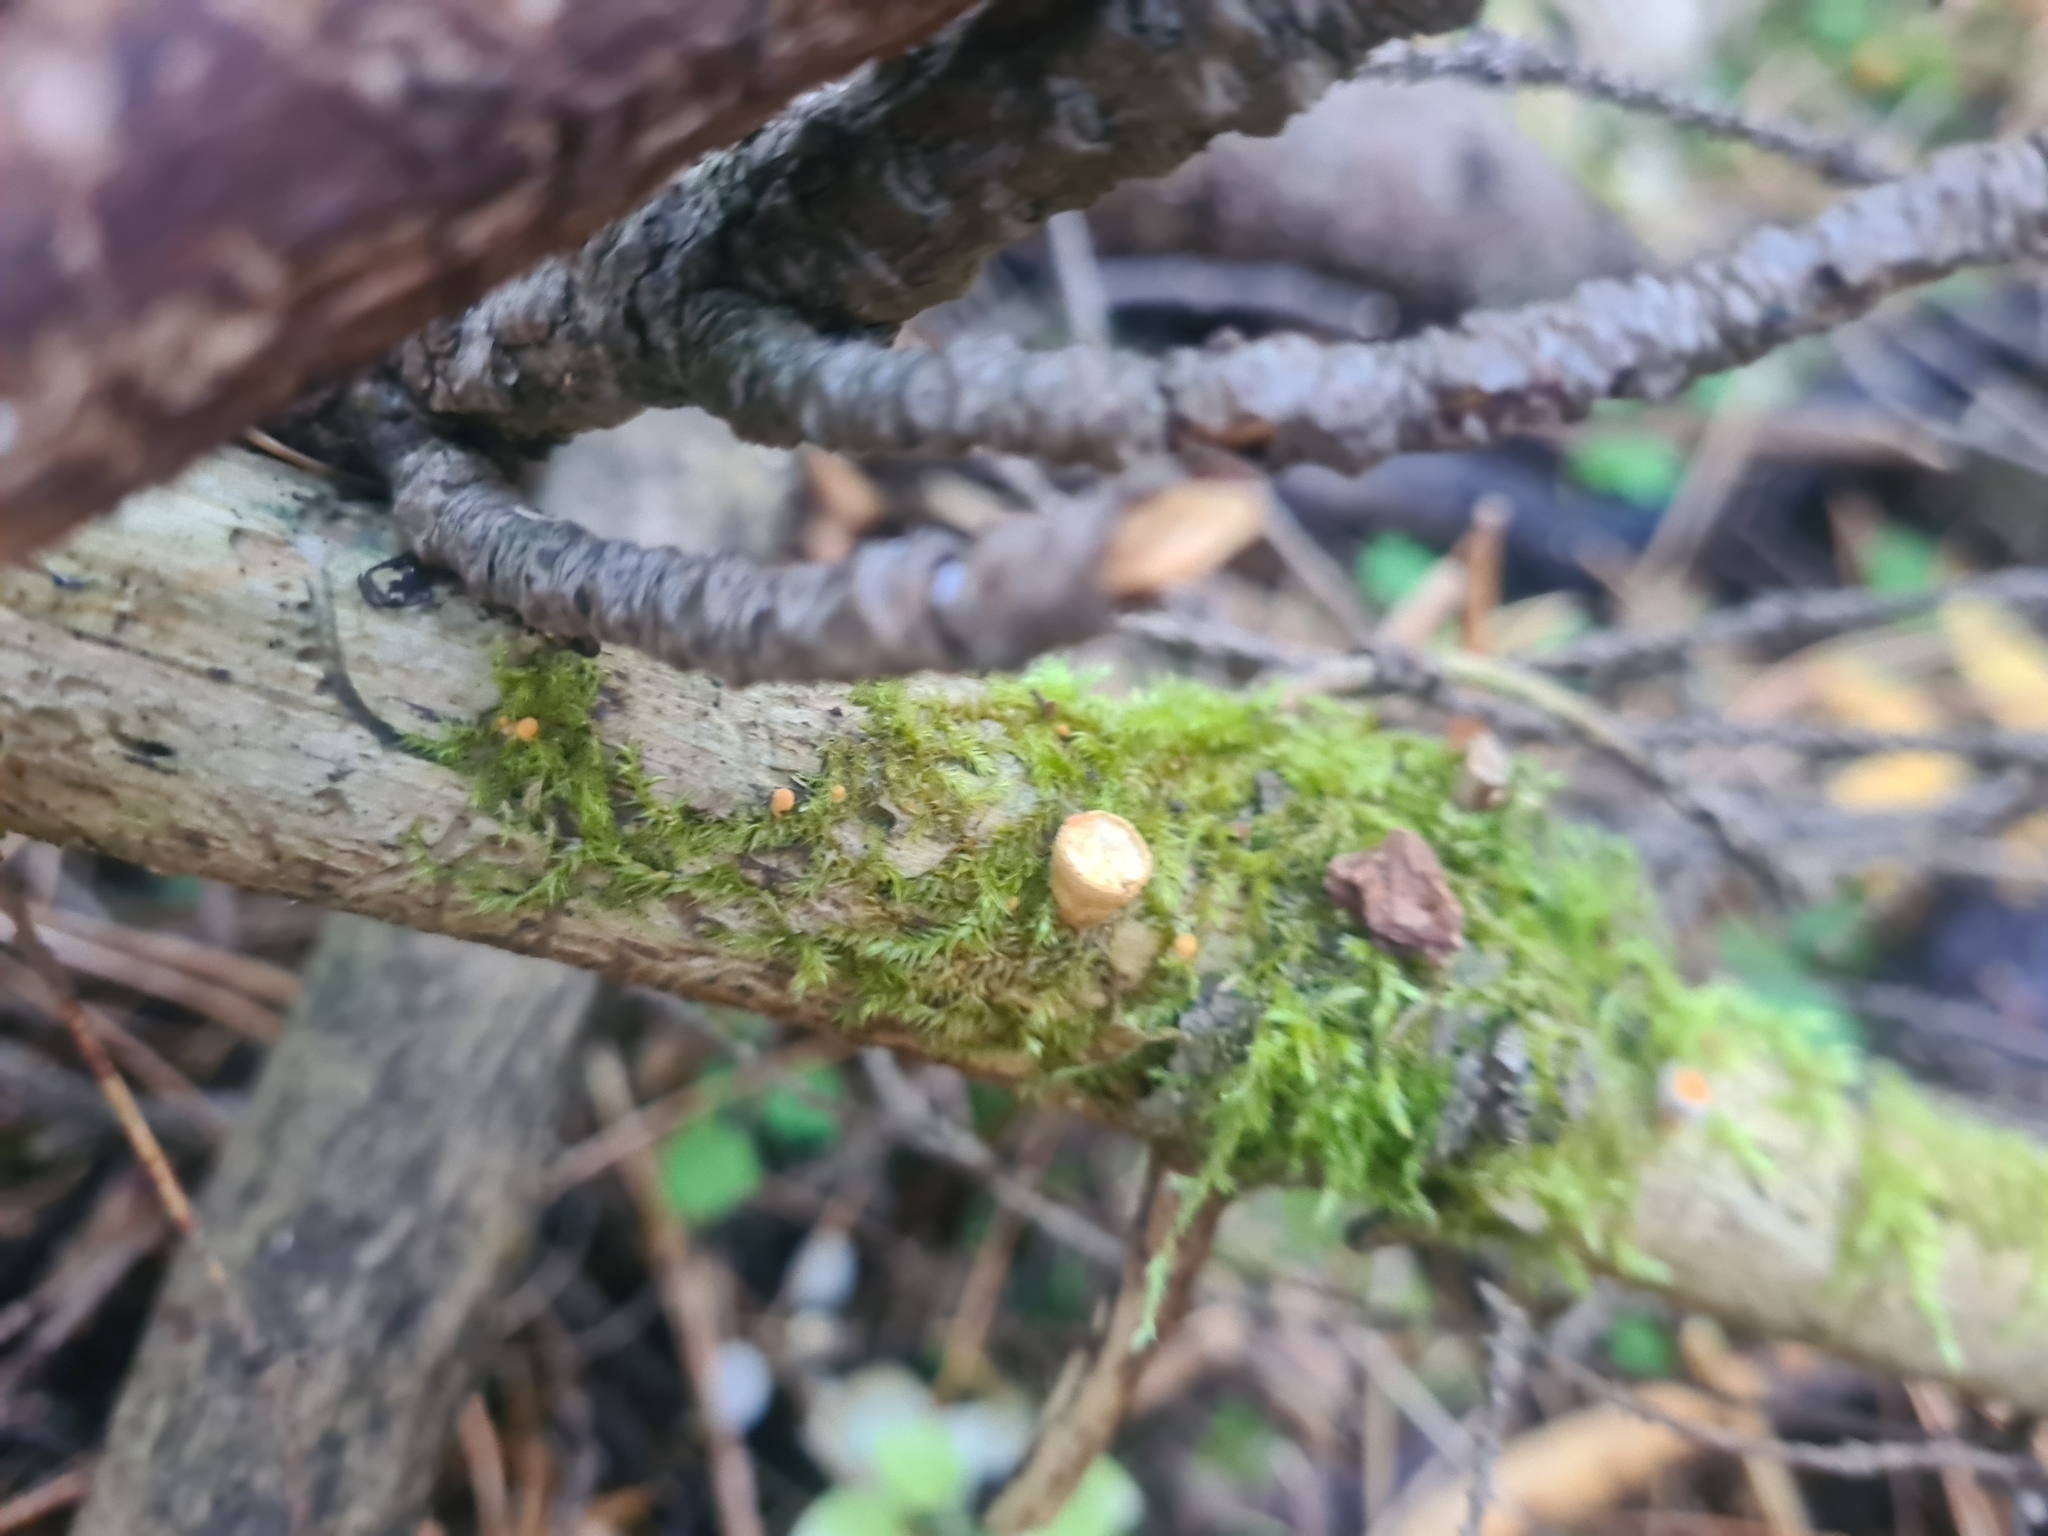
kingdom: Fungi
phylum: Basidiomycota
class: Agaricomycetes
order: Agaricales
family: Nidulariaceae
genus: Crucibulum
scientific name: Crucibulum laeve
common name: Common bird's nest
